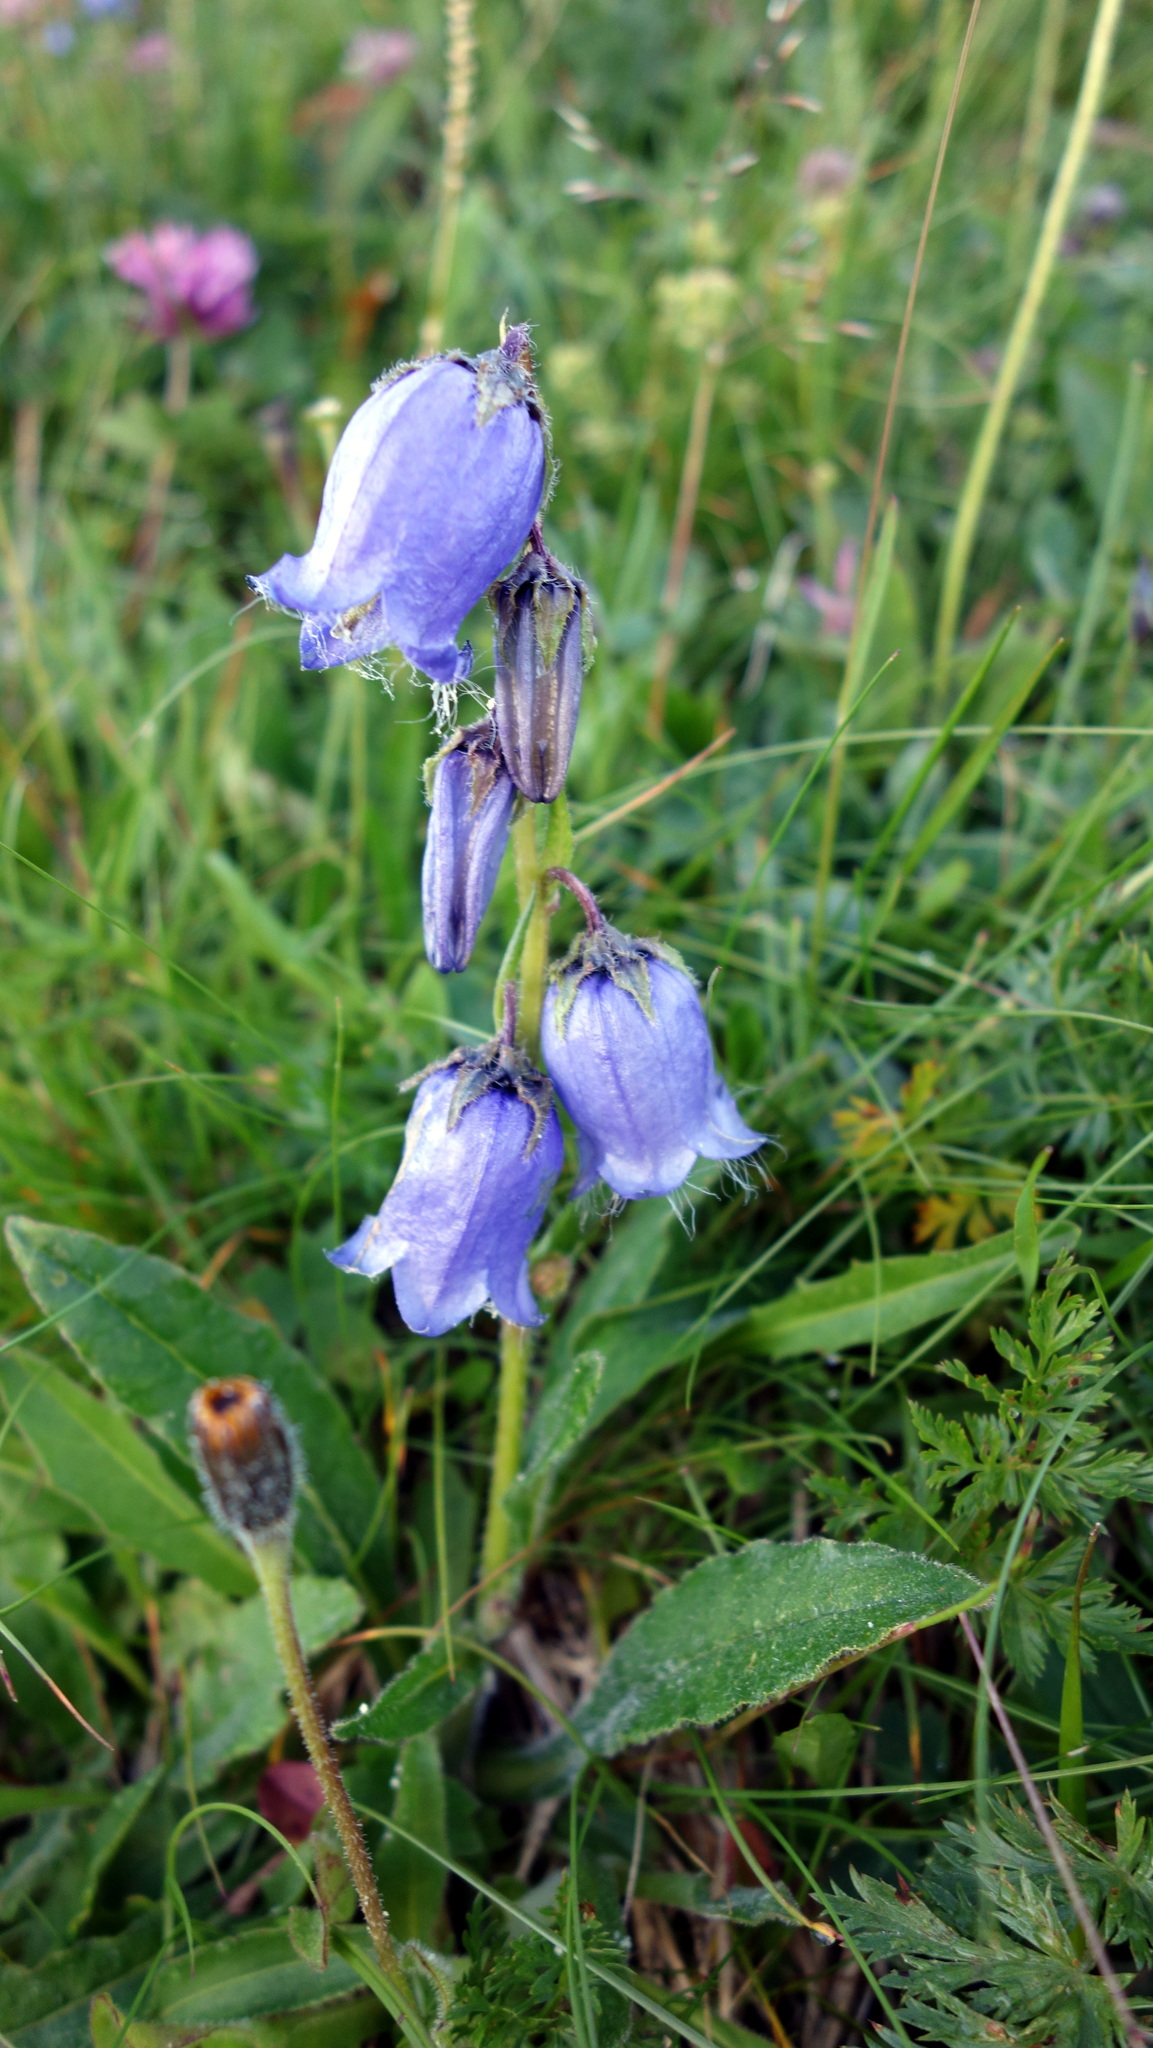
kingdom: Plantae
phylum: Tracheophyta
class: Magnoliopsida
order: Asterales
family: Campanulaceae
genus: Campanula
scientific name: Campanula barbata
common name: Bearded bellflower
